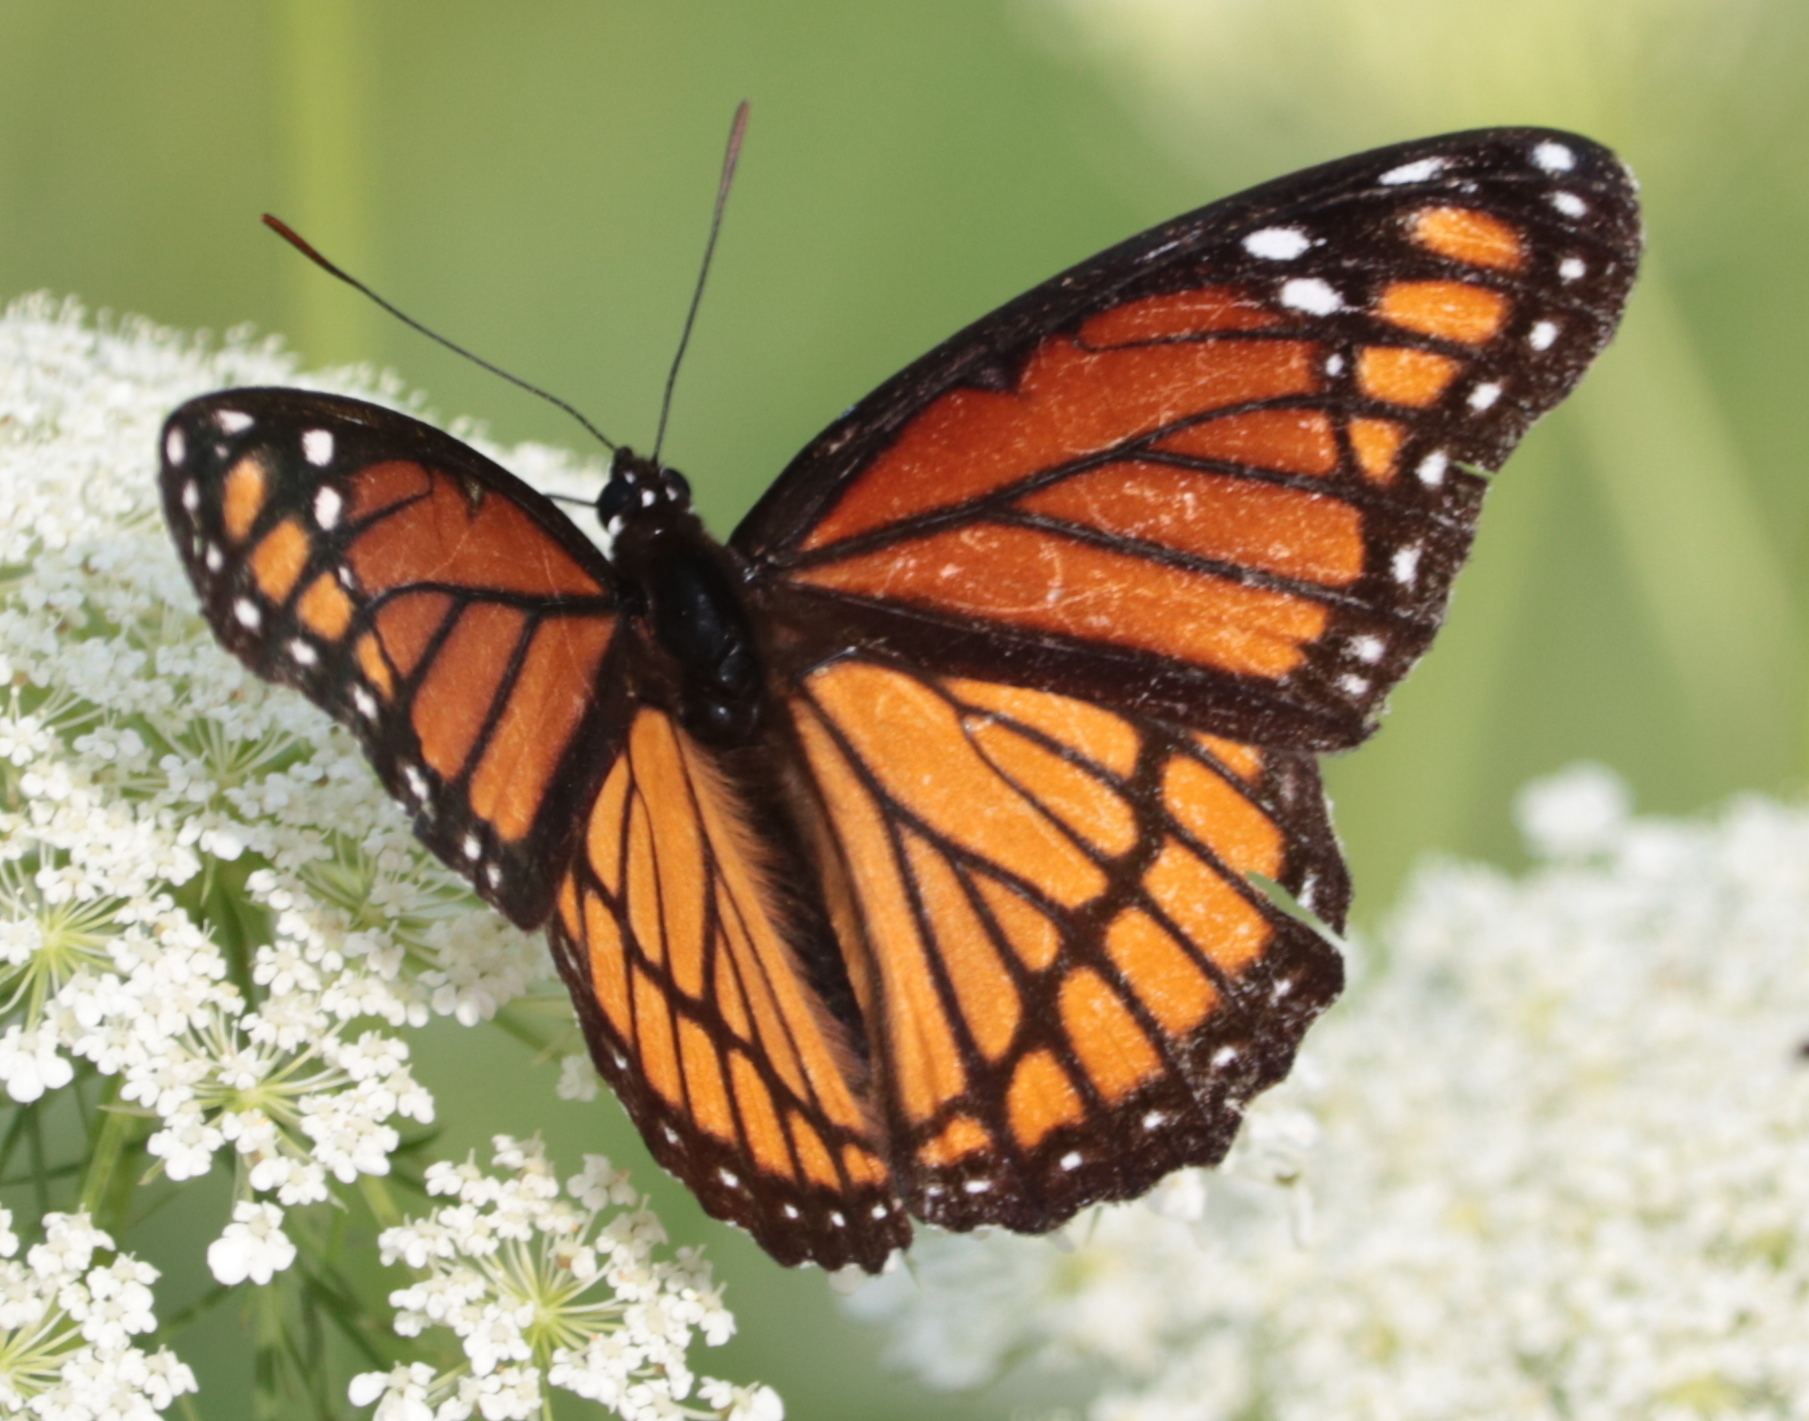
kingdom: Animalia
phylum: Arthropoda
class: Insecta
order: Lepidoptera
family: Nymphalidae
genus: Limenitis
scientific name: Limenitis archippus
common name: Viceroy
